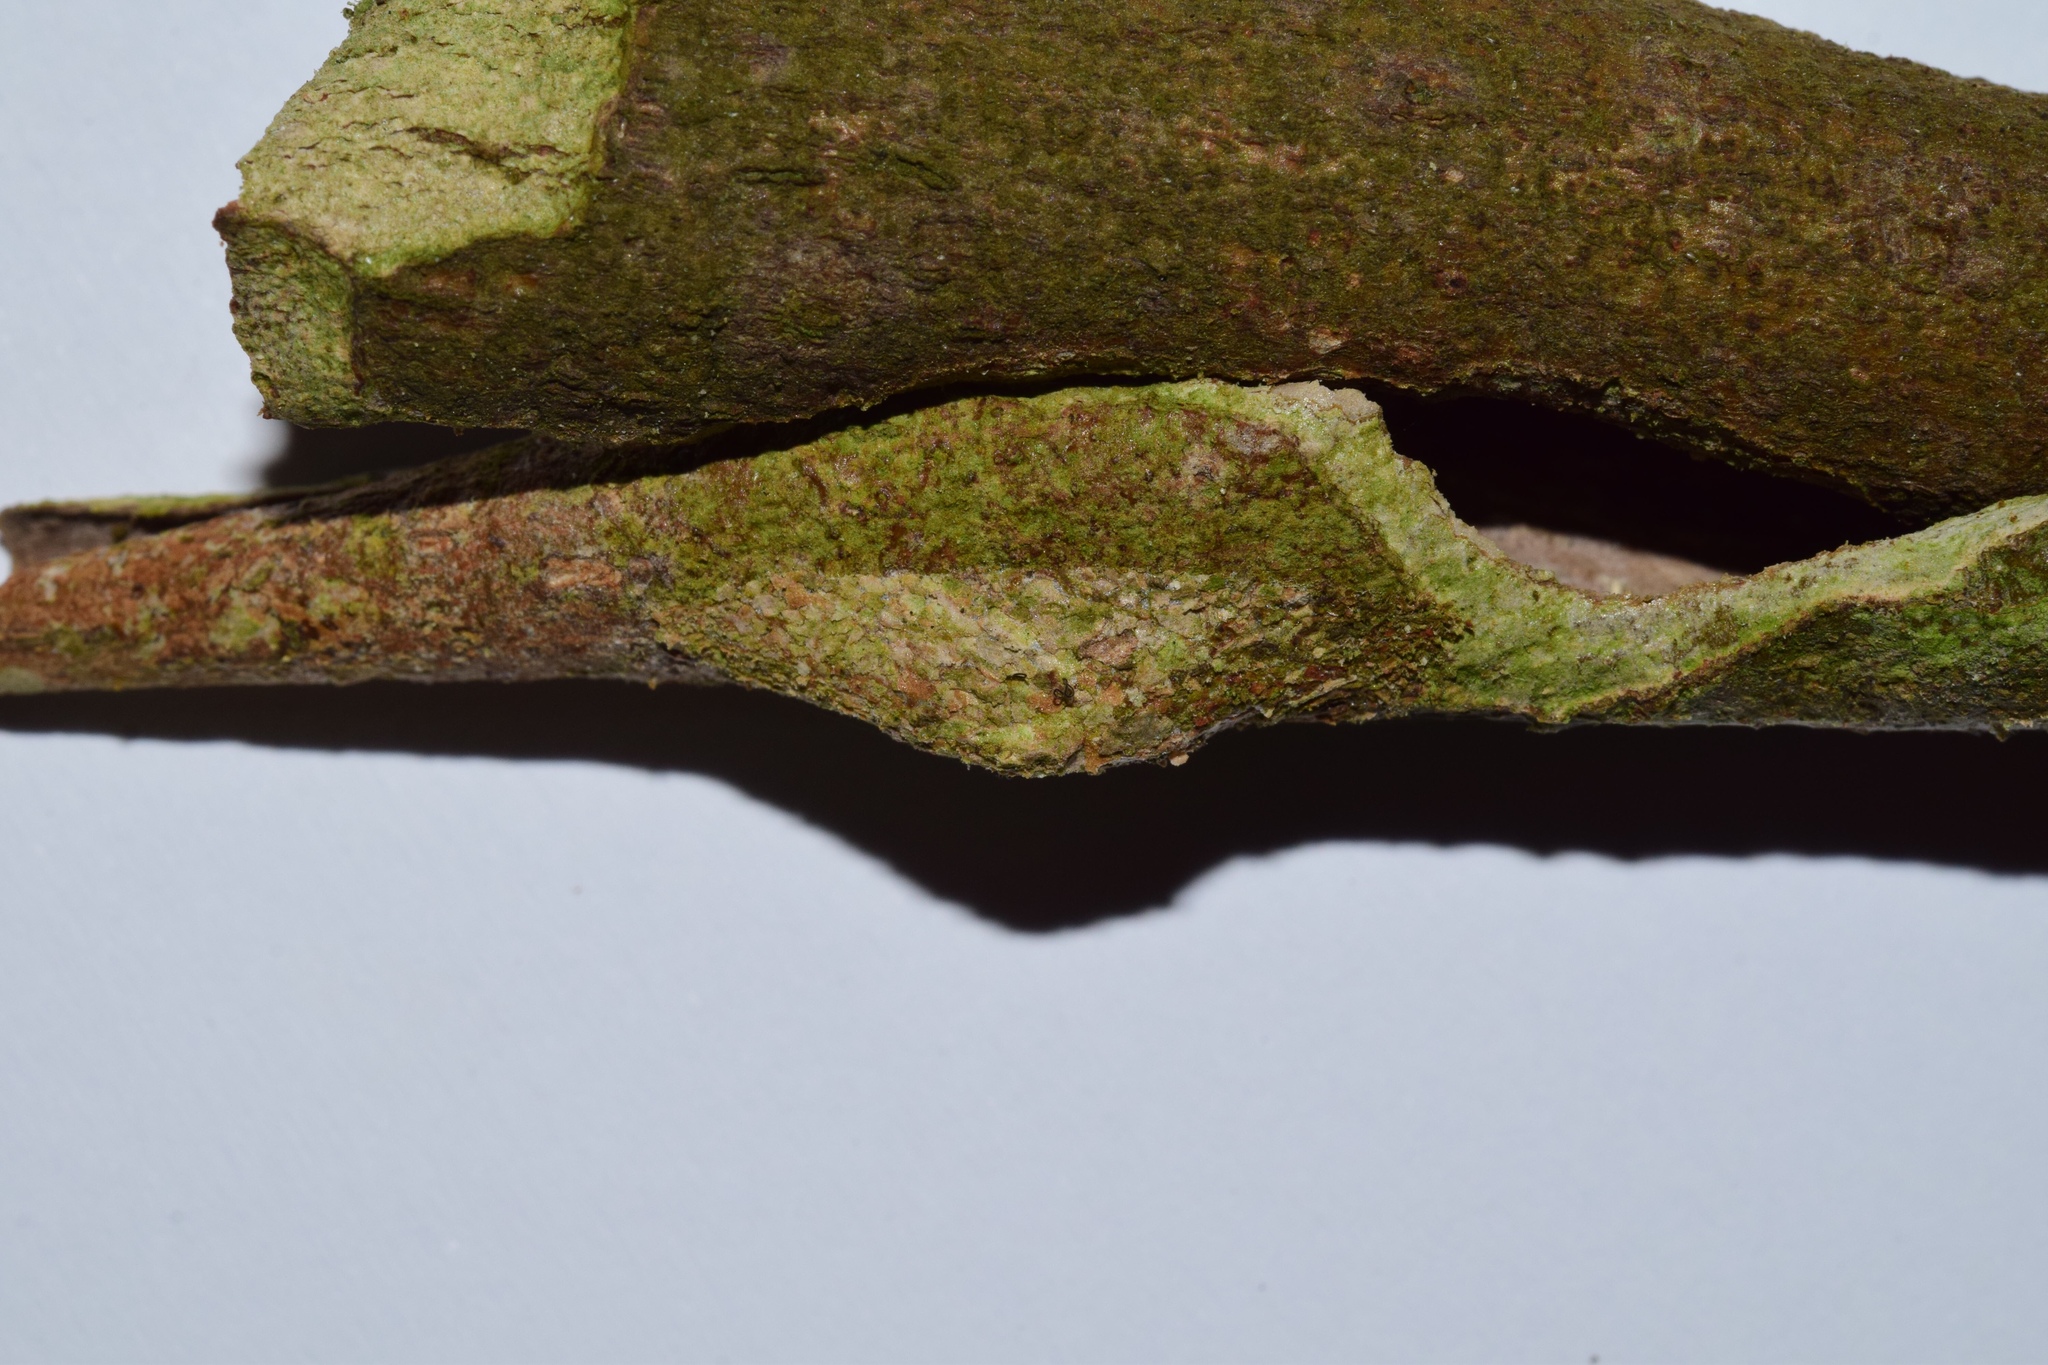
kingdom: Animalia
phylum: Arthropoda
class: Insecta
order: Lepidoptera
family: Nolidae
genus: Selepa
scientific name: Selepa transvalica
